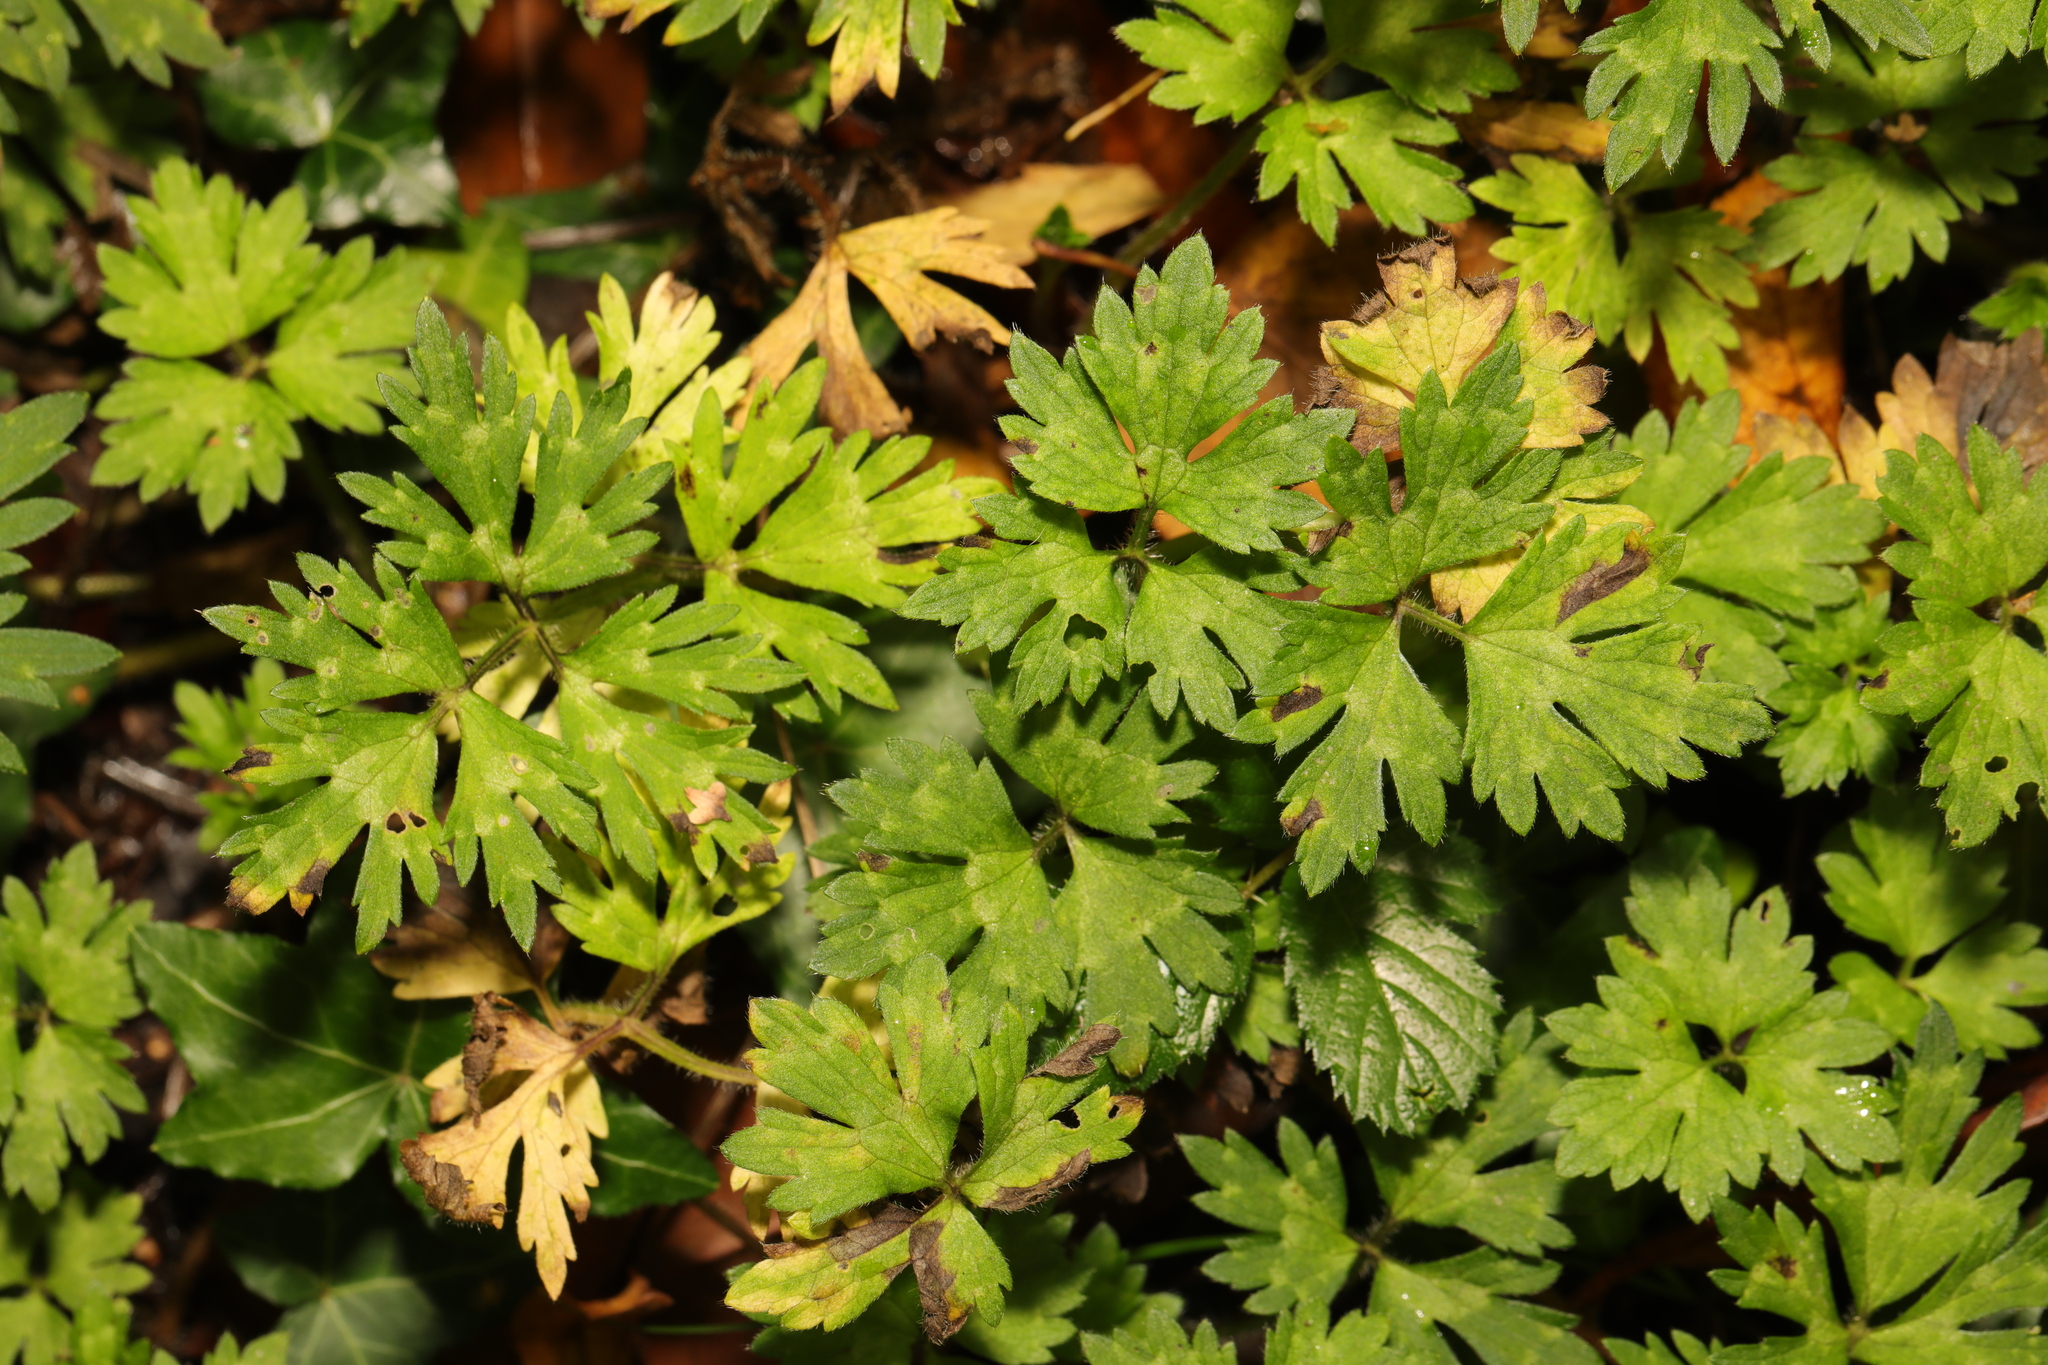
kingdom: Plantae
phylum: Tracheophyta
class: Magnoliopsida
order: Ranunculales
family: Ranunculaceae
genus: Ranunculus
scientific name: Ranunculus repens
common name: Creeping buttercup
